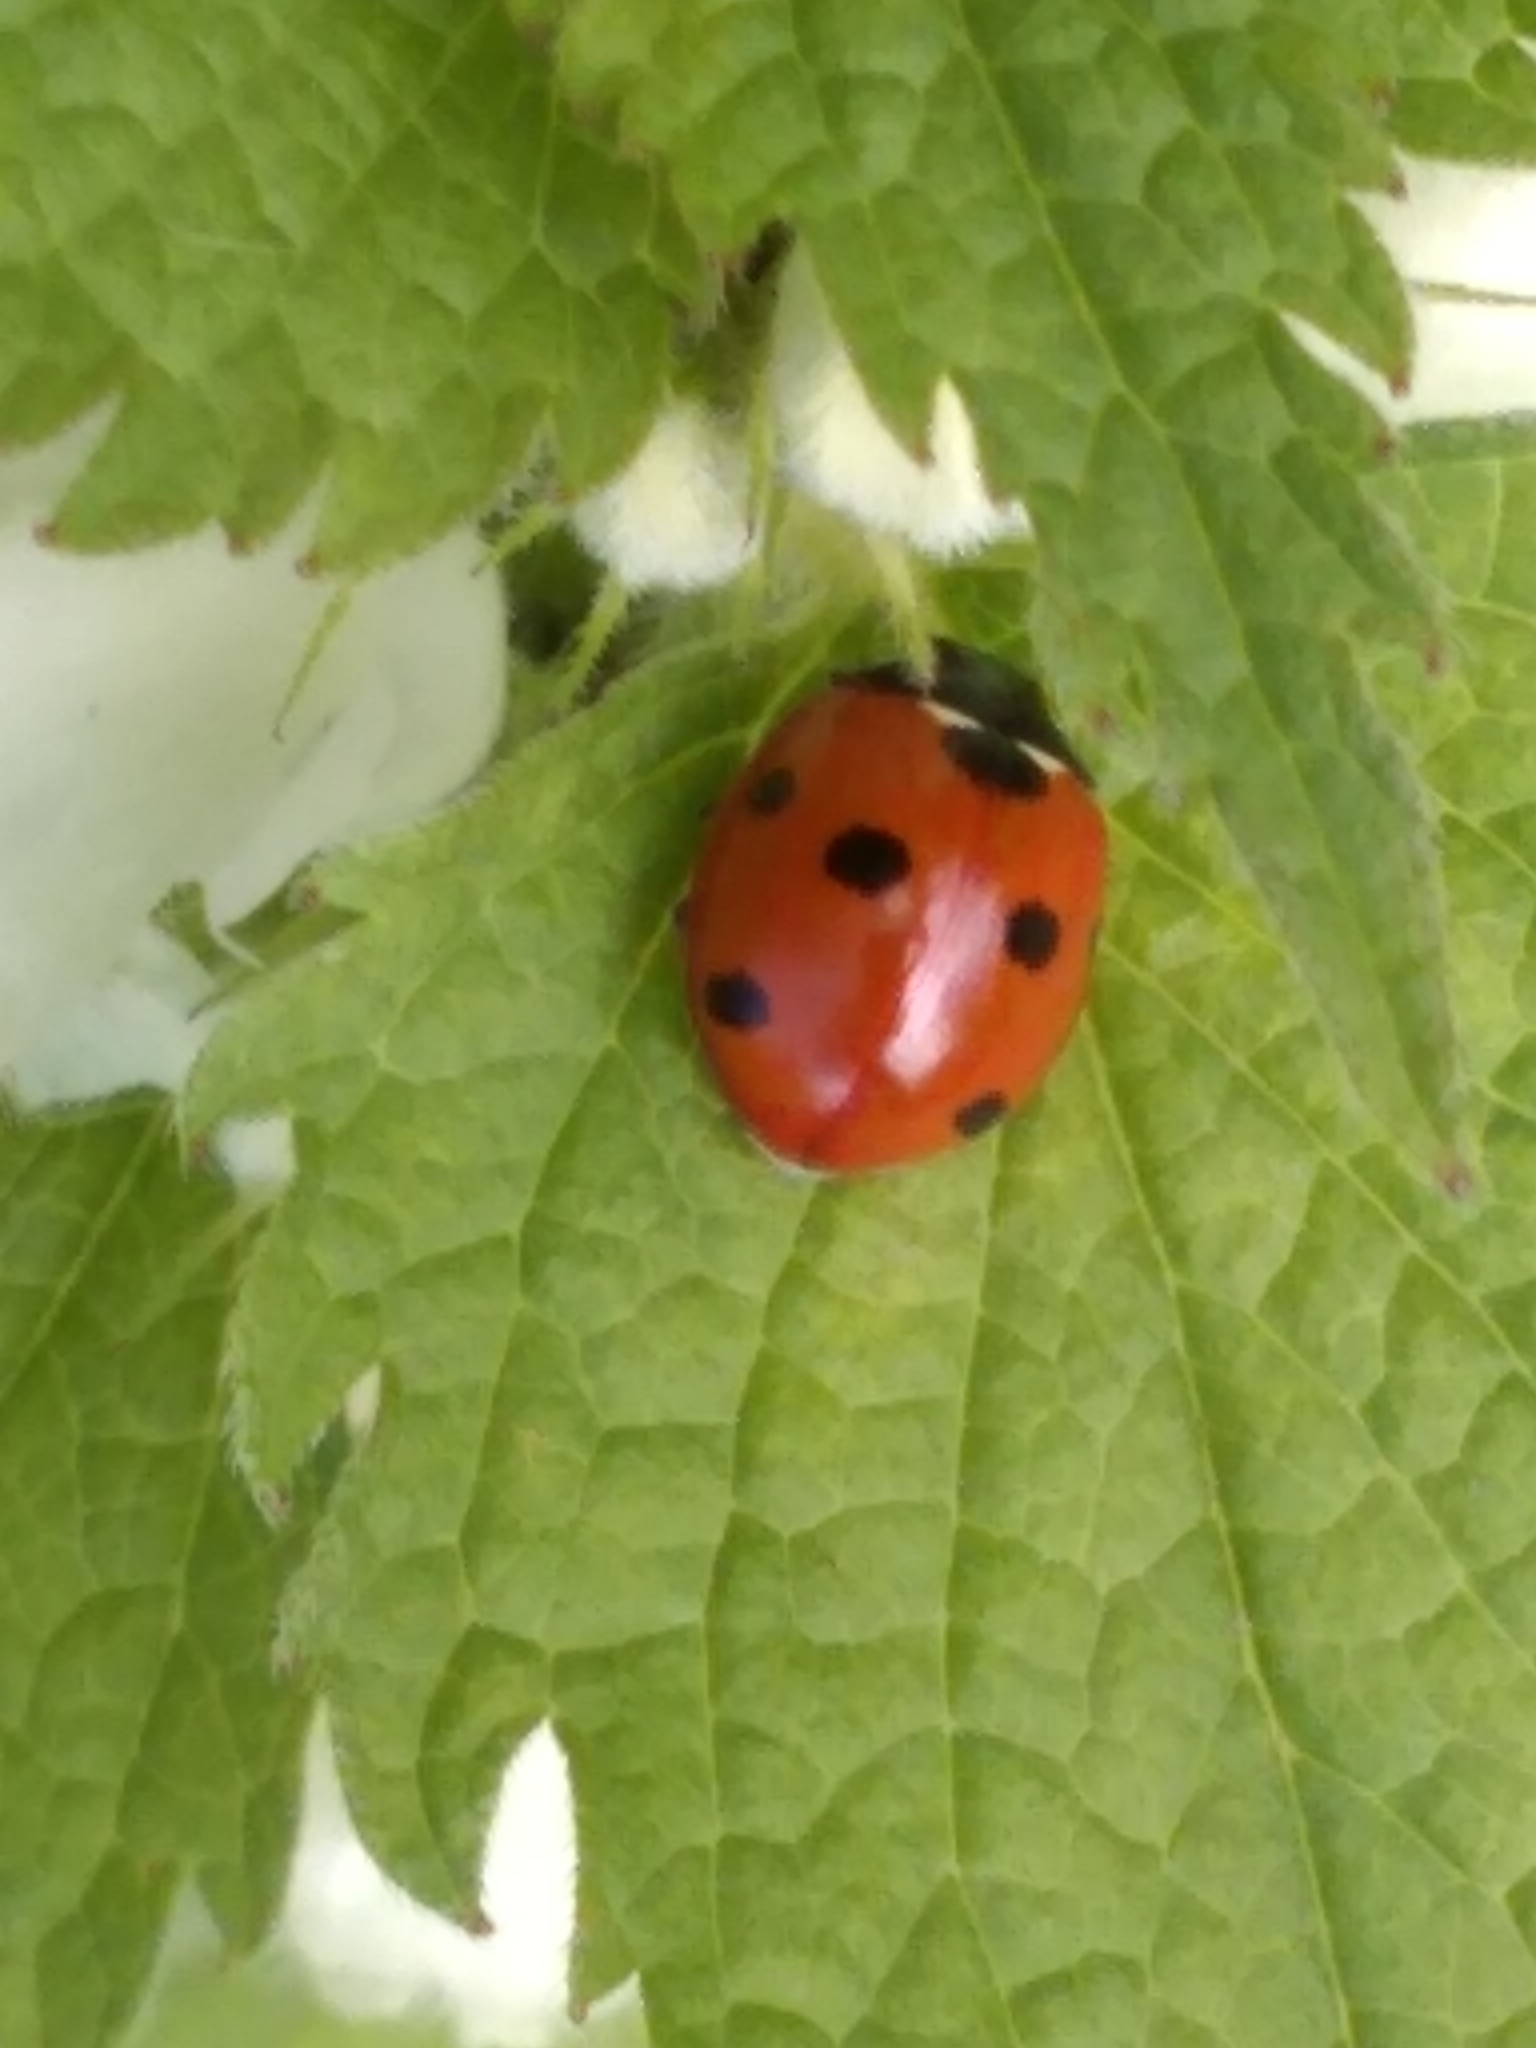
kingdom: Animalia
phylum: Arthropoda
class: Insecta
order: Coleoptera
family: Coccinellidae
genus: Coccinella
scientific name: Coccinella septempunctata
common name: Sevenspotted lady beetle
